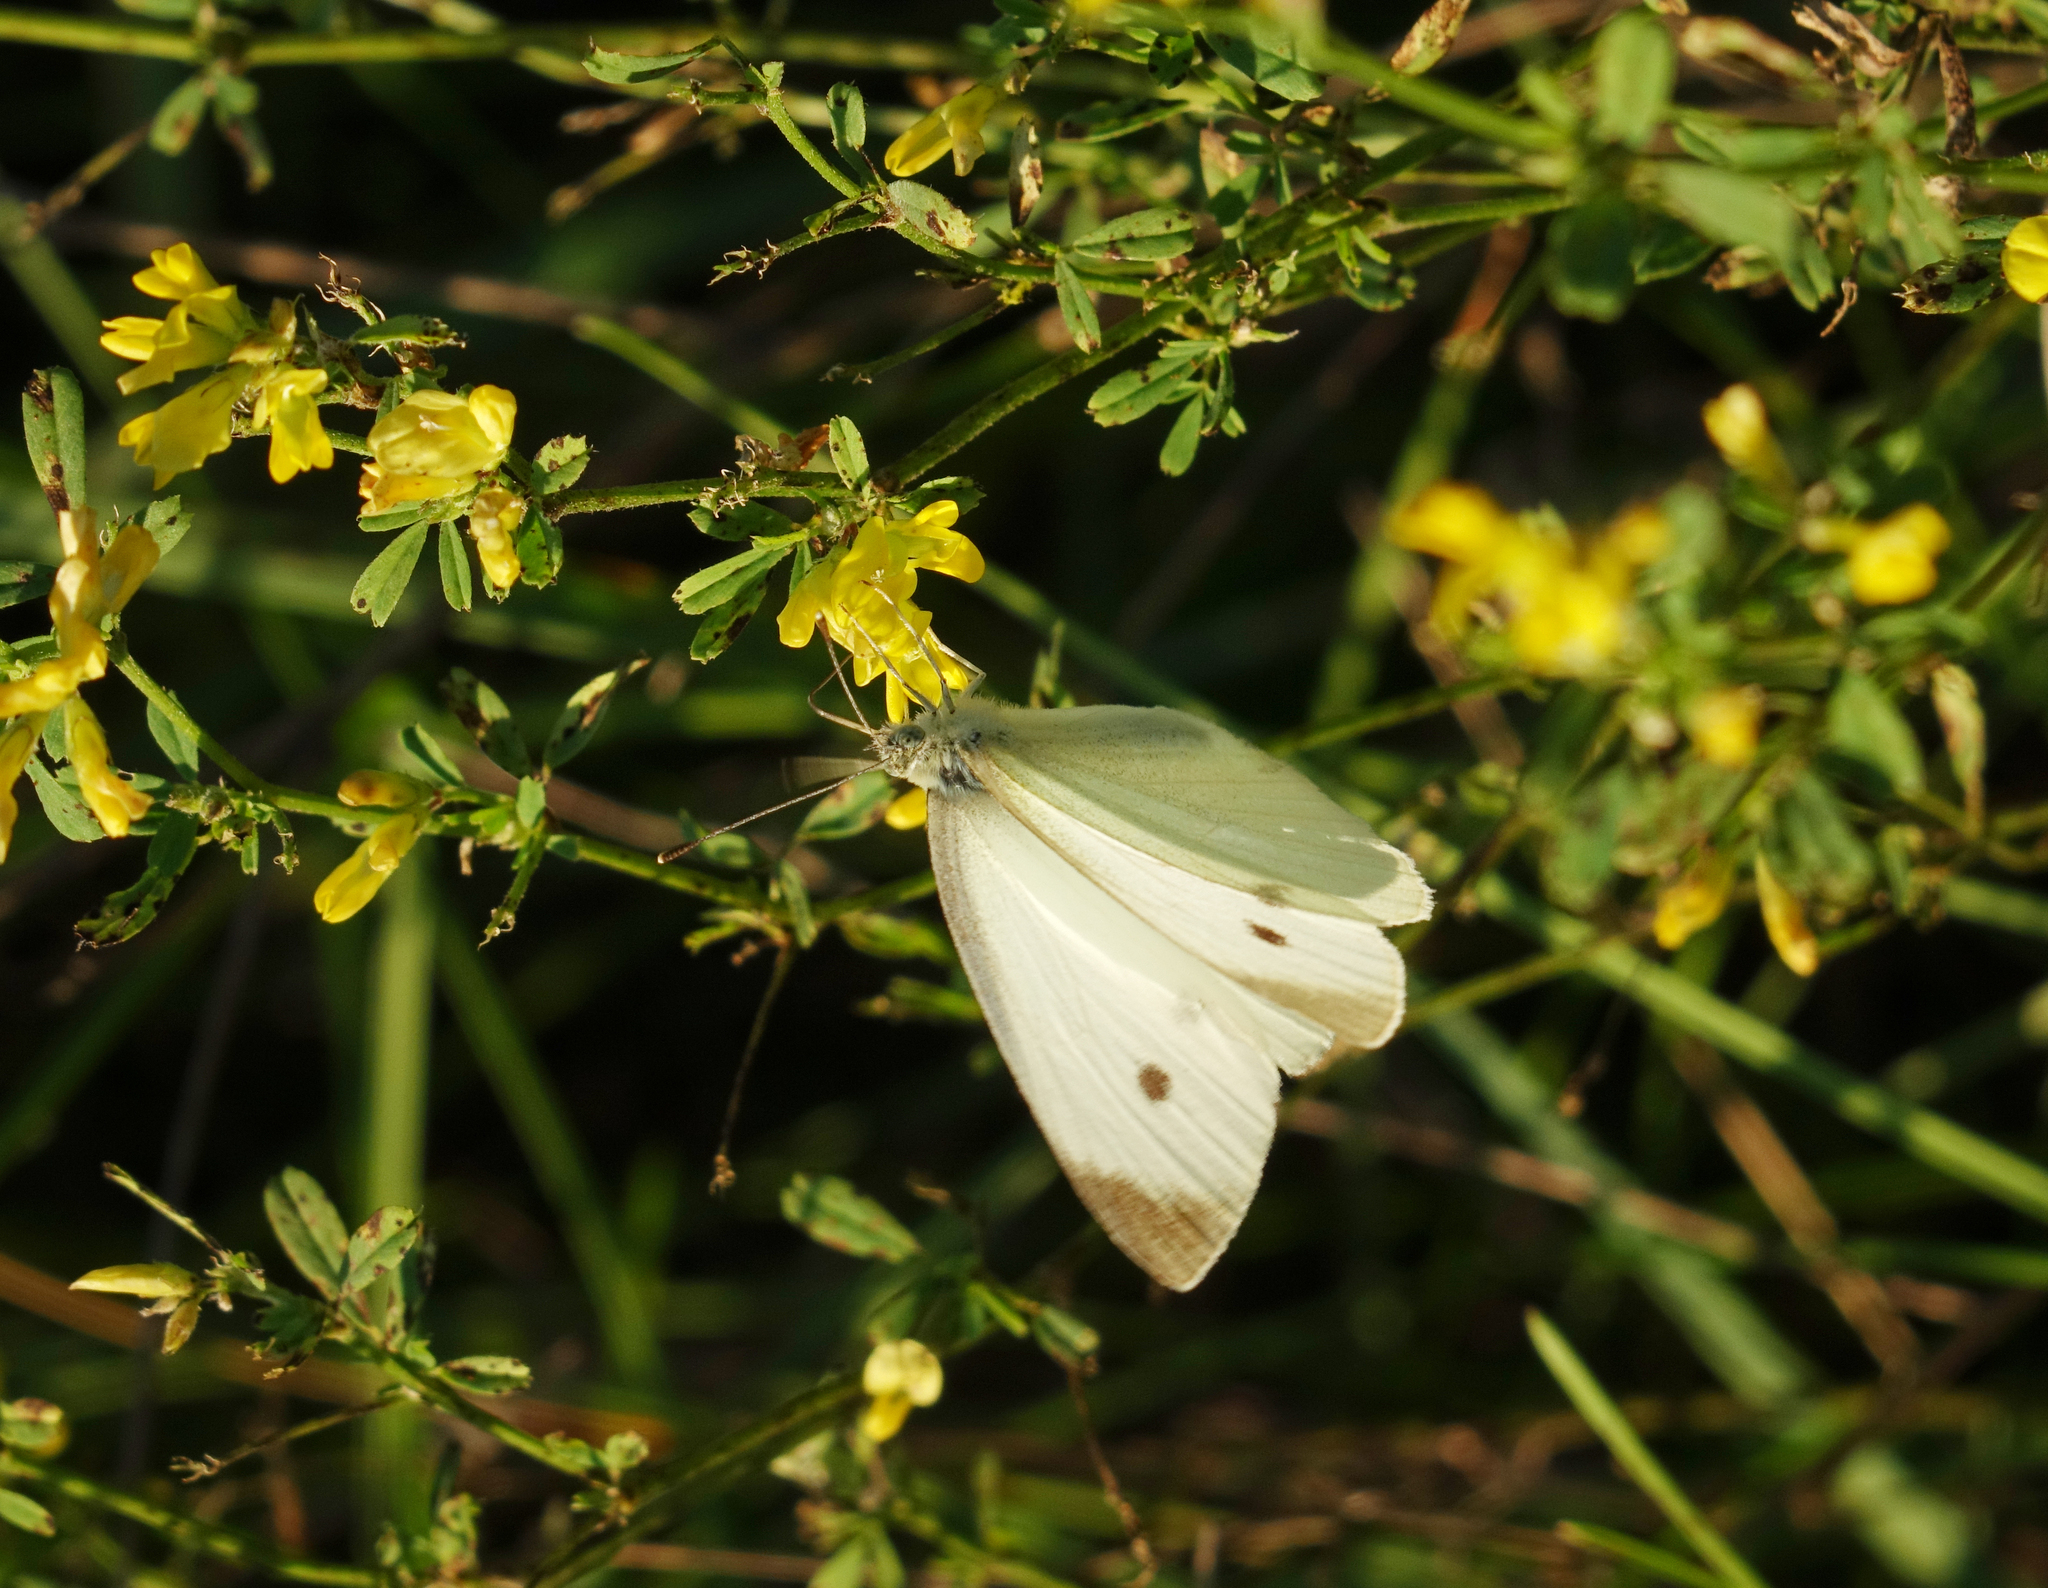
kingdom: Plantae
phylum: Tracheophyta
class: Magnoliopsida
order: Fabales
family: Fabaceae
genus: Medicago
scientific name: Medicago falcata
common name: Sickle medick
